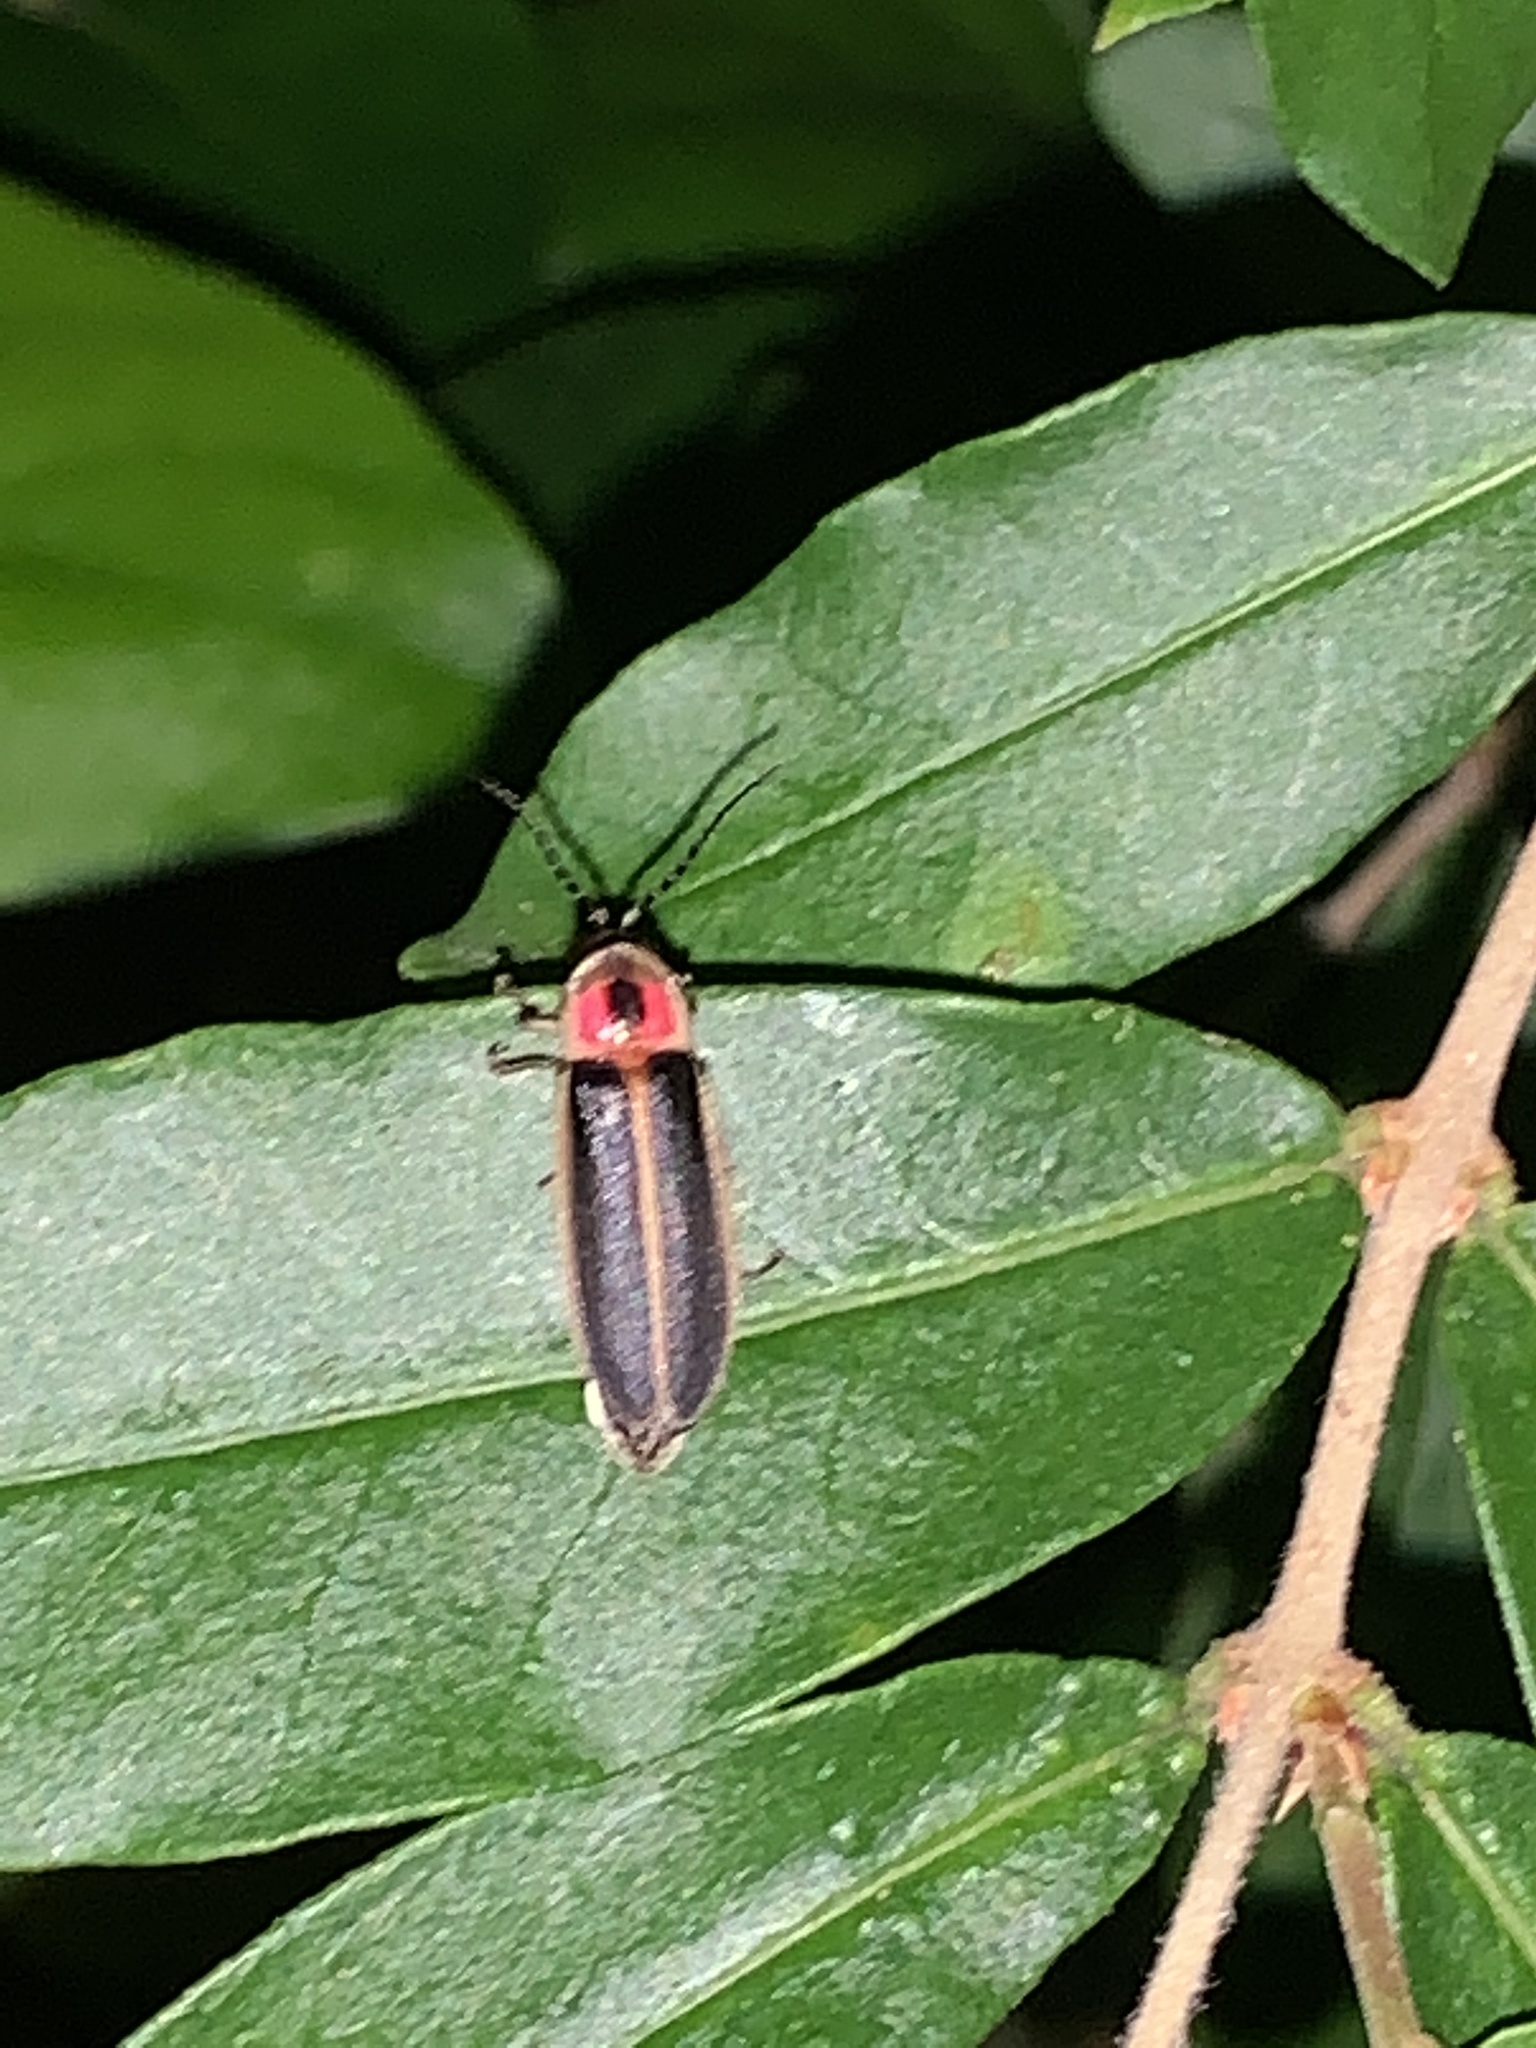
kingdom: Animalia
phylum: Arthropoda
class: Insecta
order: Coleoptera
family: Lampyridae
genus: Photinus
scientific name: Photinus pyralis
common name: Big dipper firefly
